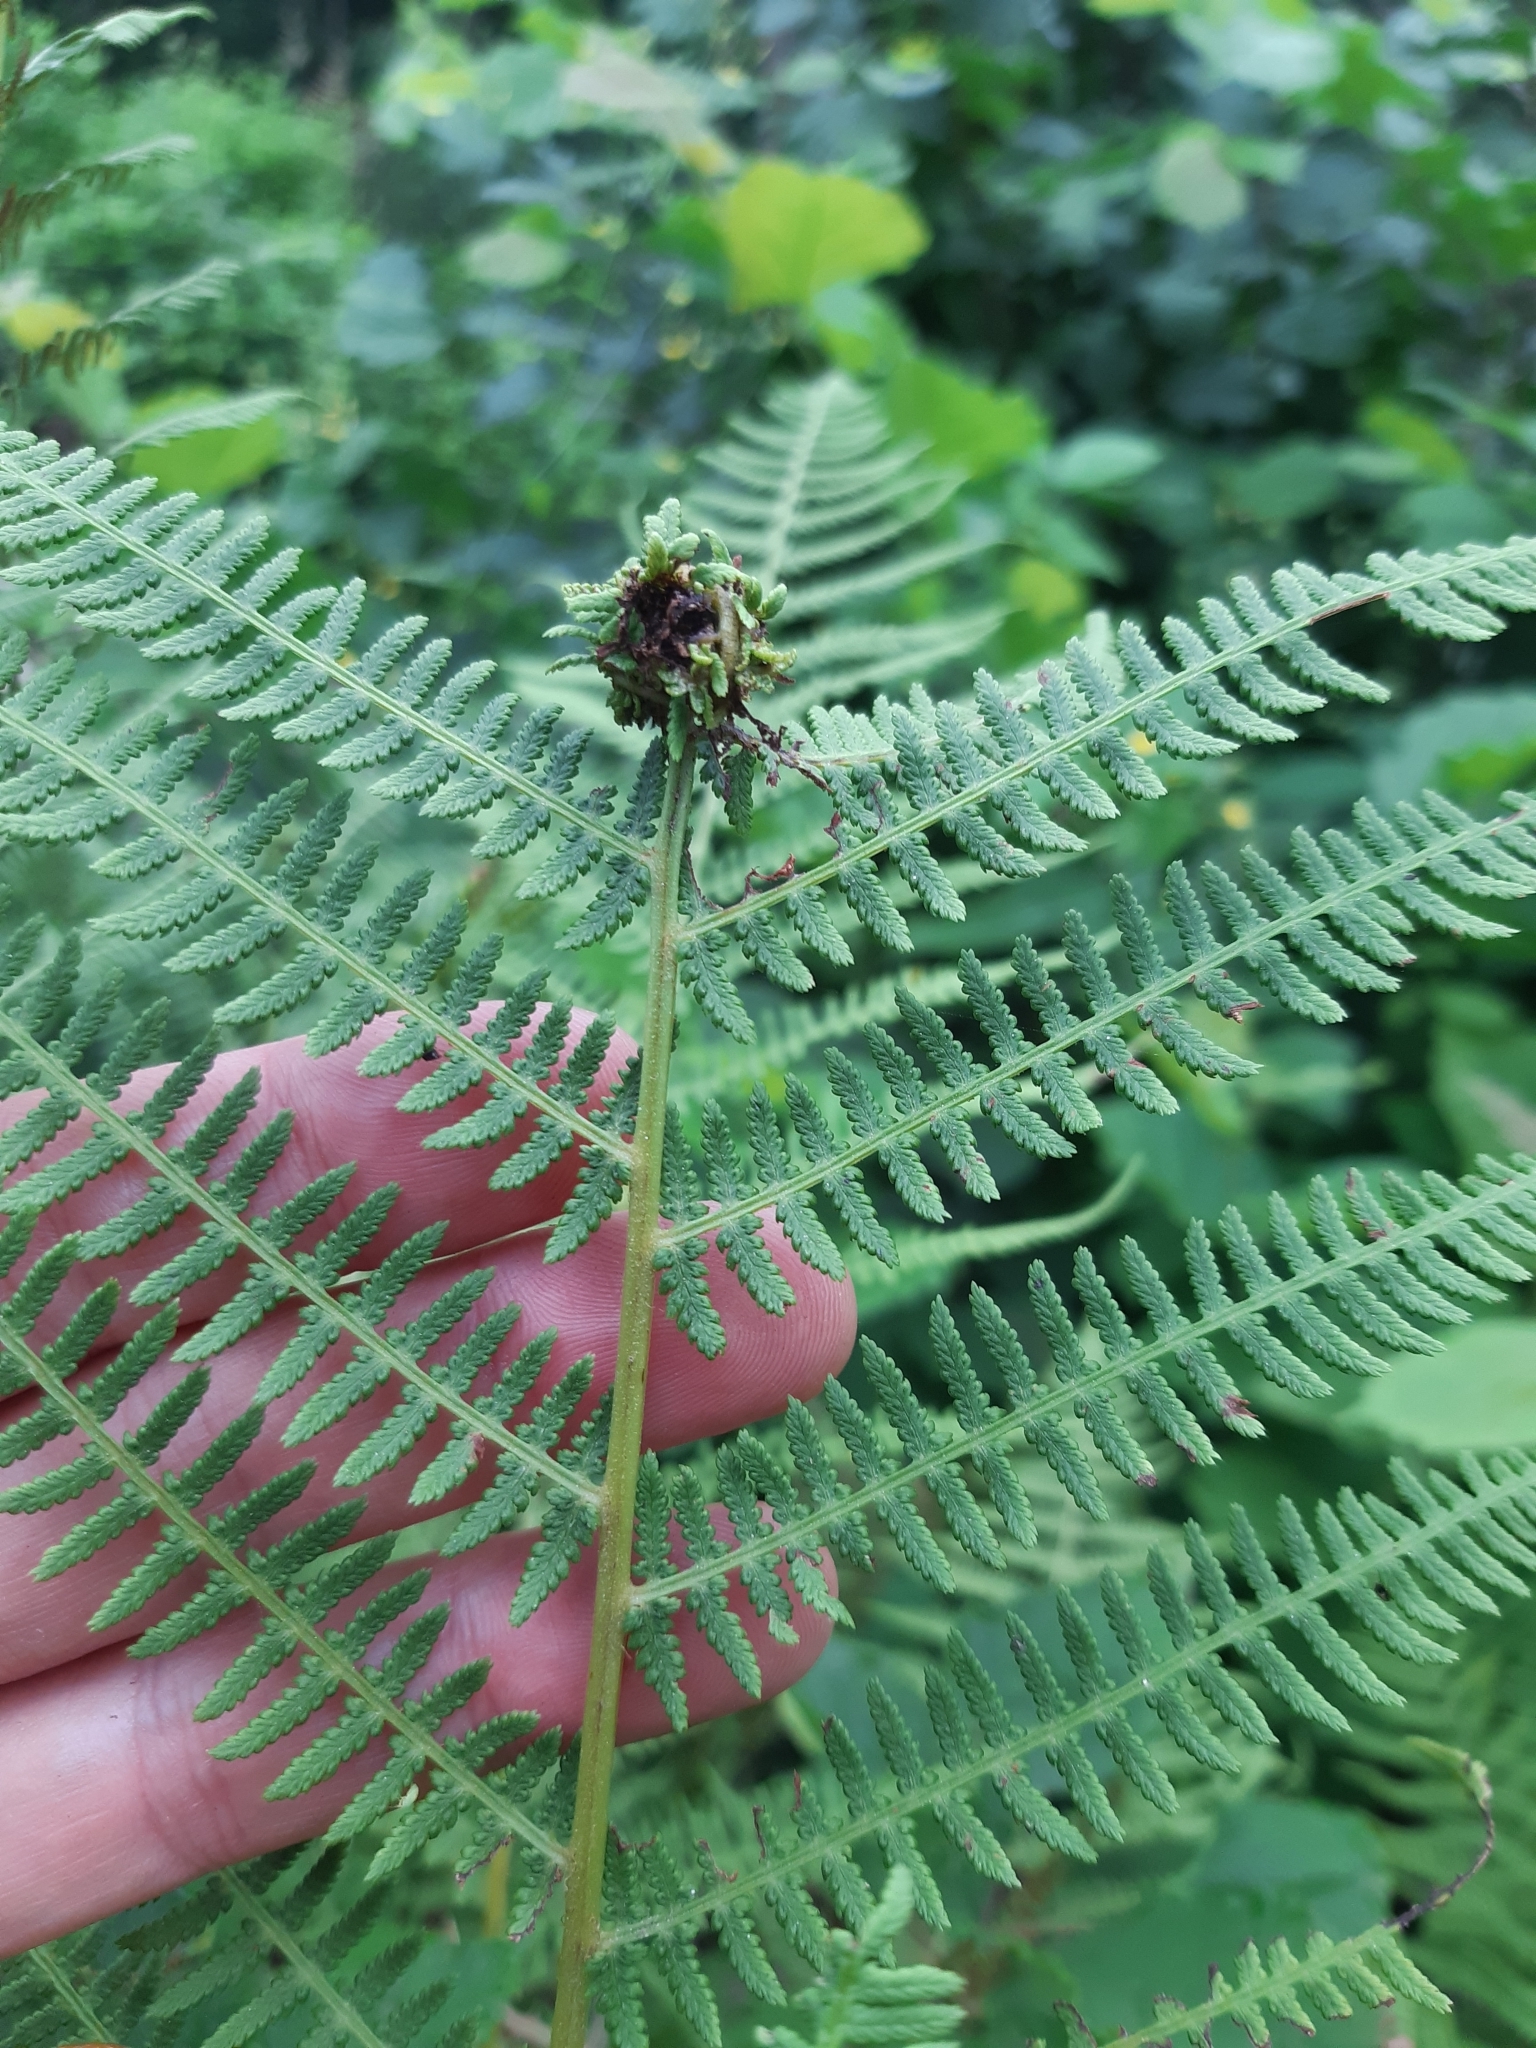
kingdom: Animalia
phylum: Arthropoda
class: Insecta
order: Diptera
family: Anthomyiidae
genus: Chirosia
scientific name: Chirosia betuleti
